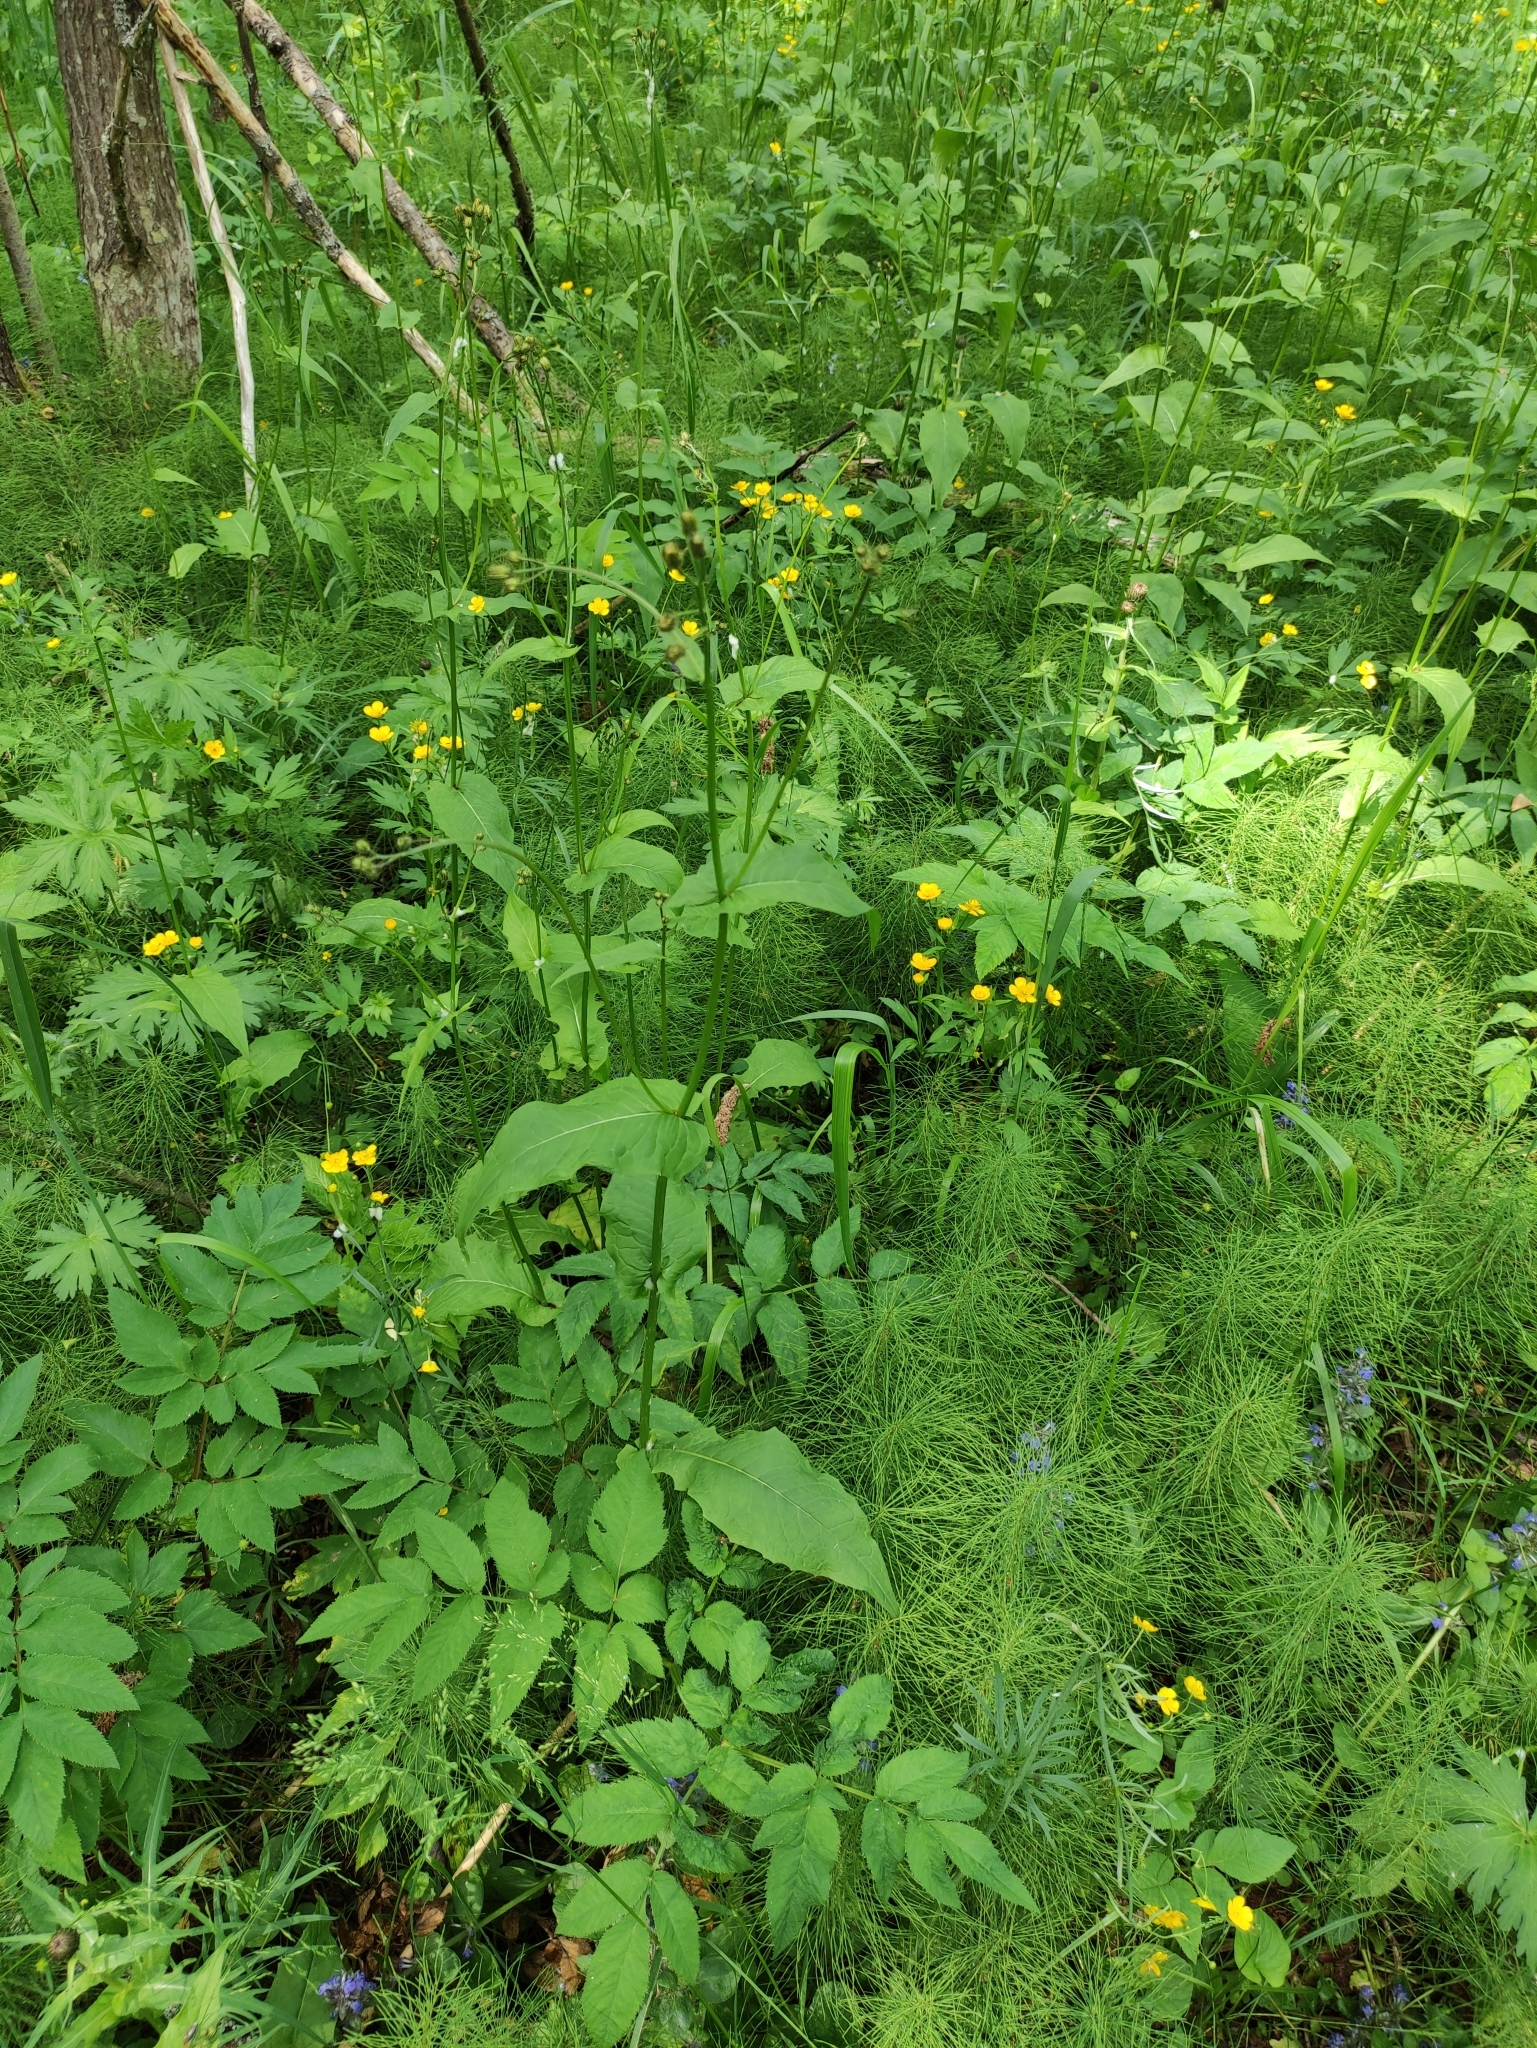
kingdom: Plantae
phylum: Tracheophyta
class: Magnoliopsida
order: Asterales
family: Asteraceae
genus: Crepis
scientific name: Crepis paludosa
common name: Marsh hawk's-beard
